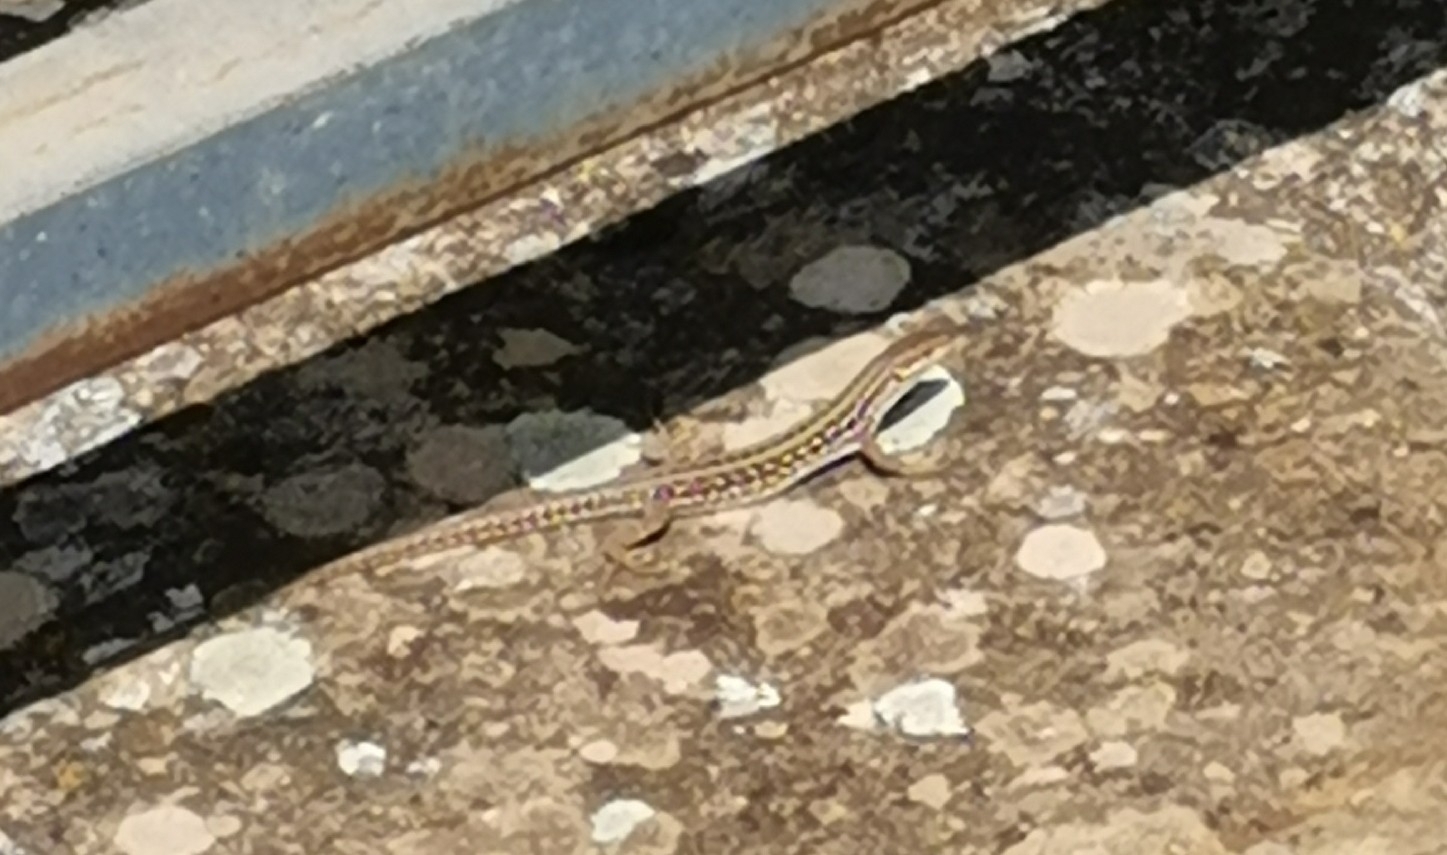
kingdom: Animalia
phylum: Chordata
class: Squamata
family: Lacertidae
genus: Podarcis
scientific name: Podarcis siculus
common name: Italian wall lizard
